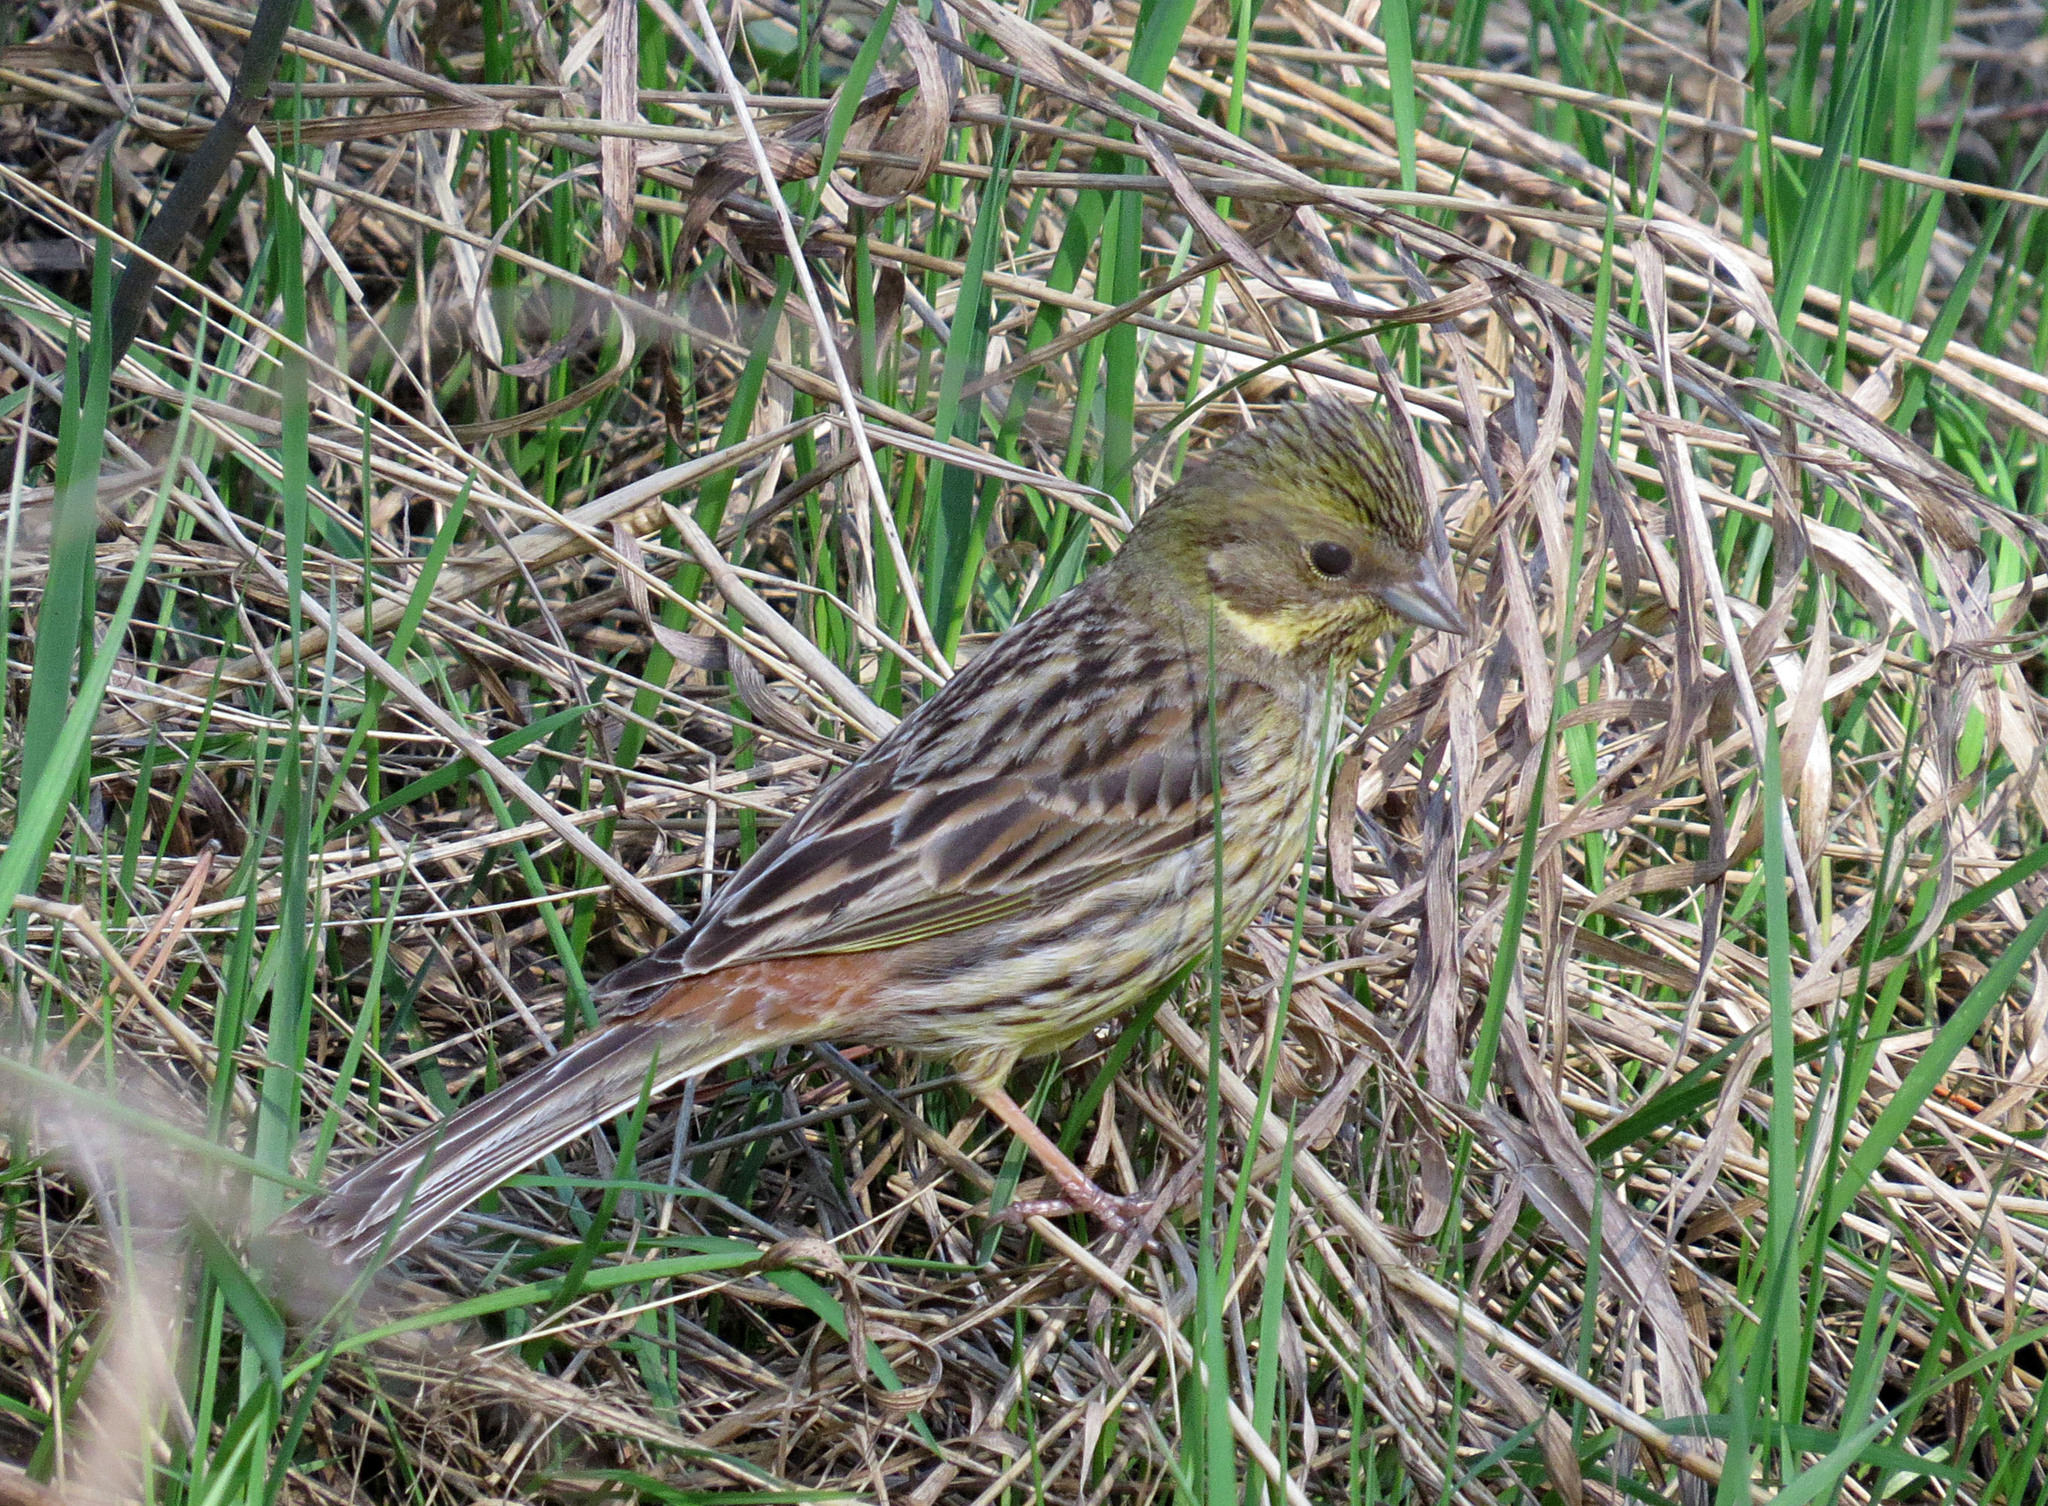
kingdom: Animalia
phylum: Chordata
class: Aves
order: Passeriformes
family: Emberizidae
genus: Emberiza
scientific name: Emberiza citrinella
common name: Yellowhammer
